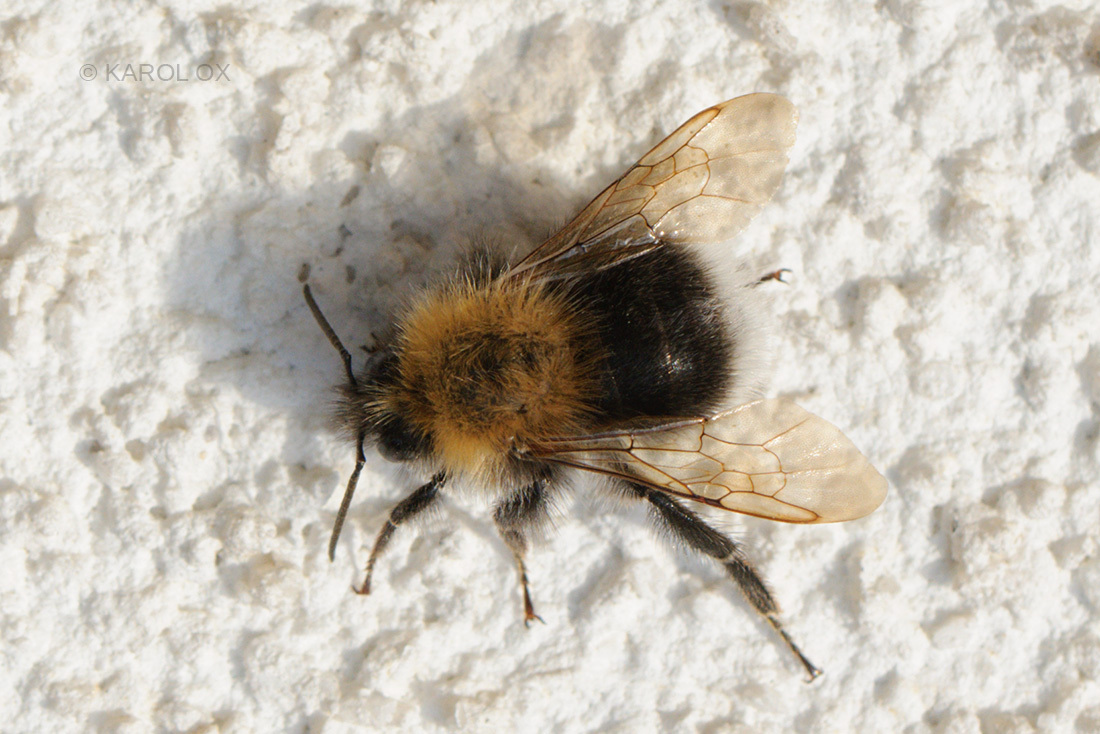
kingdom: Animalia
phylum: Arthropoda
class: Insecta
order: Hymenoptera
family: Apidae
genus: Bombus
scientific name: Bombus hypnorum
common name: New garden bumblebee
